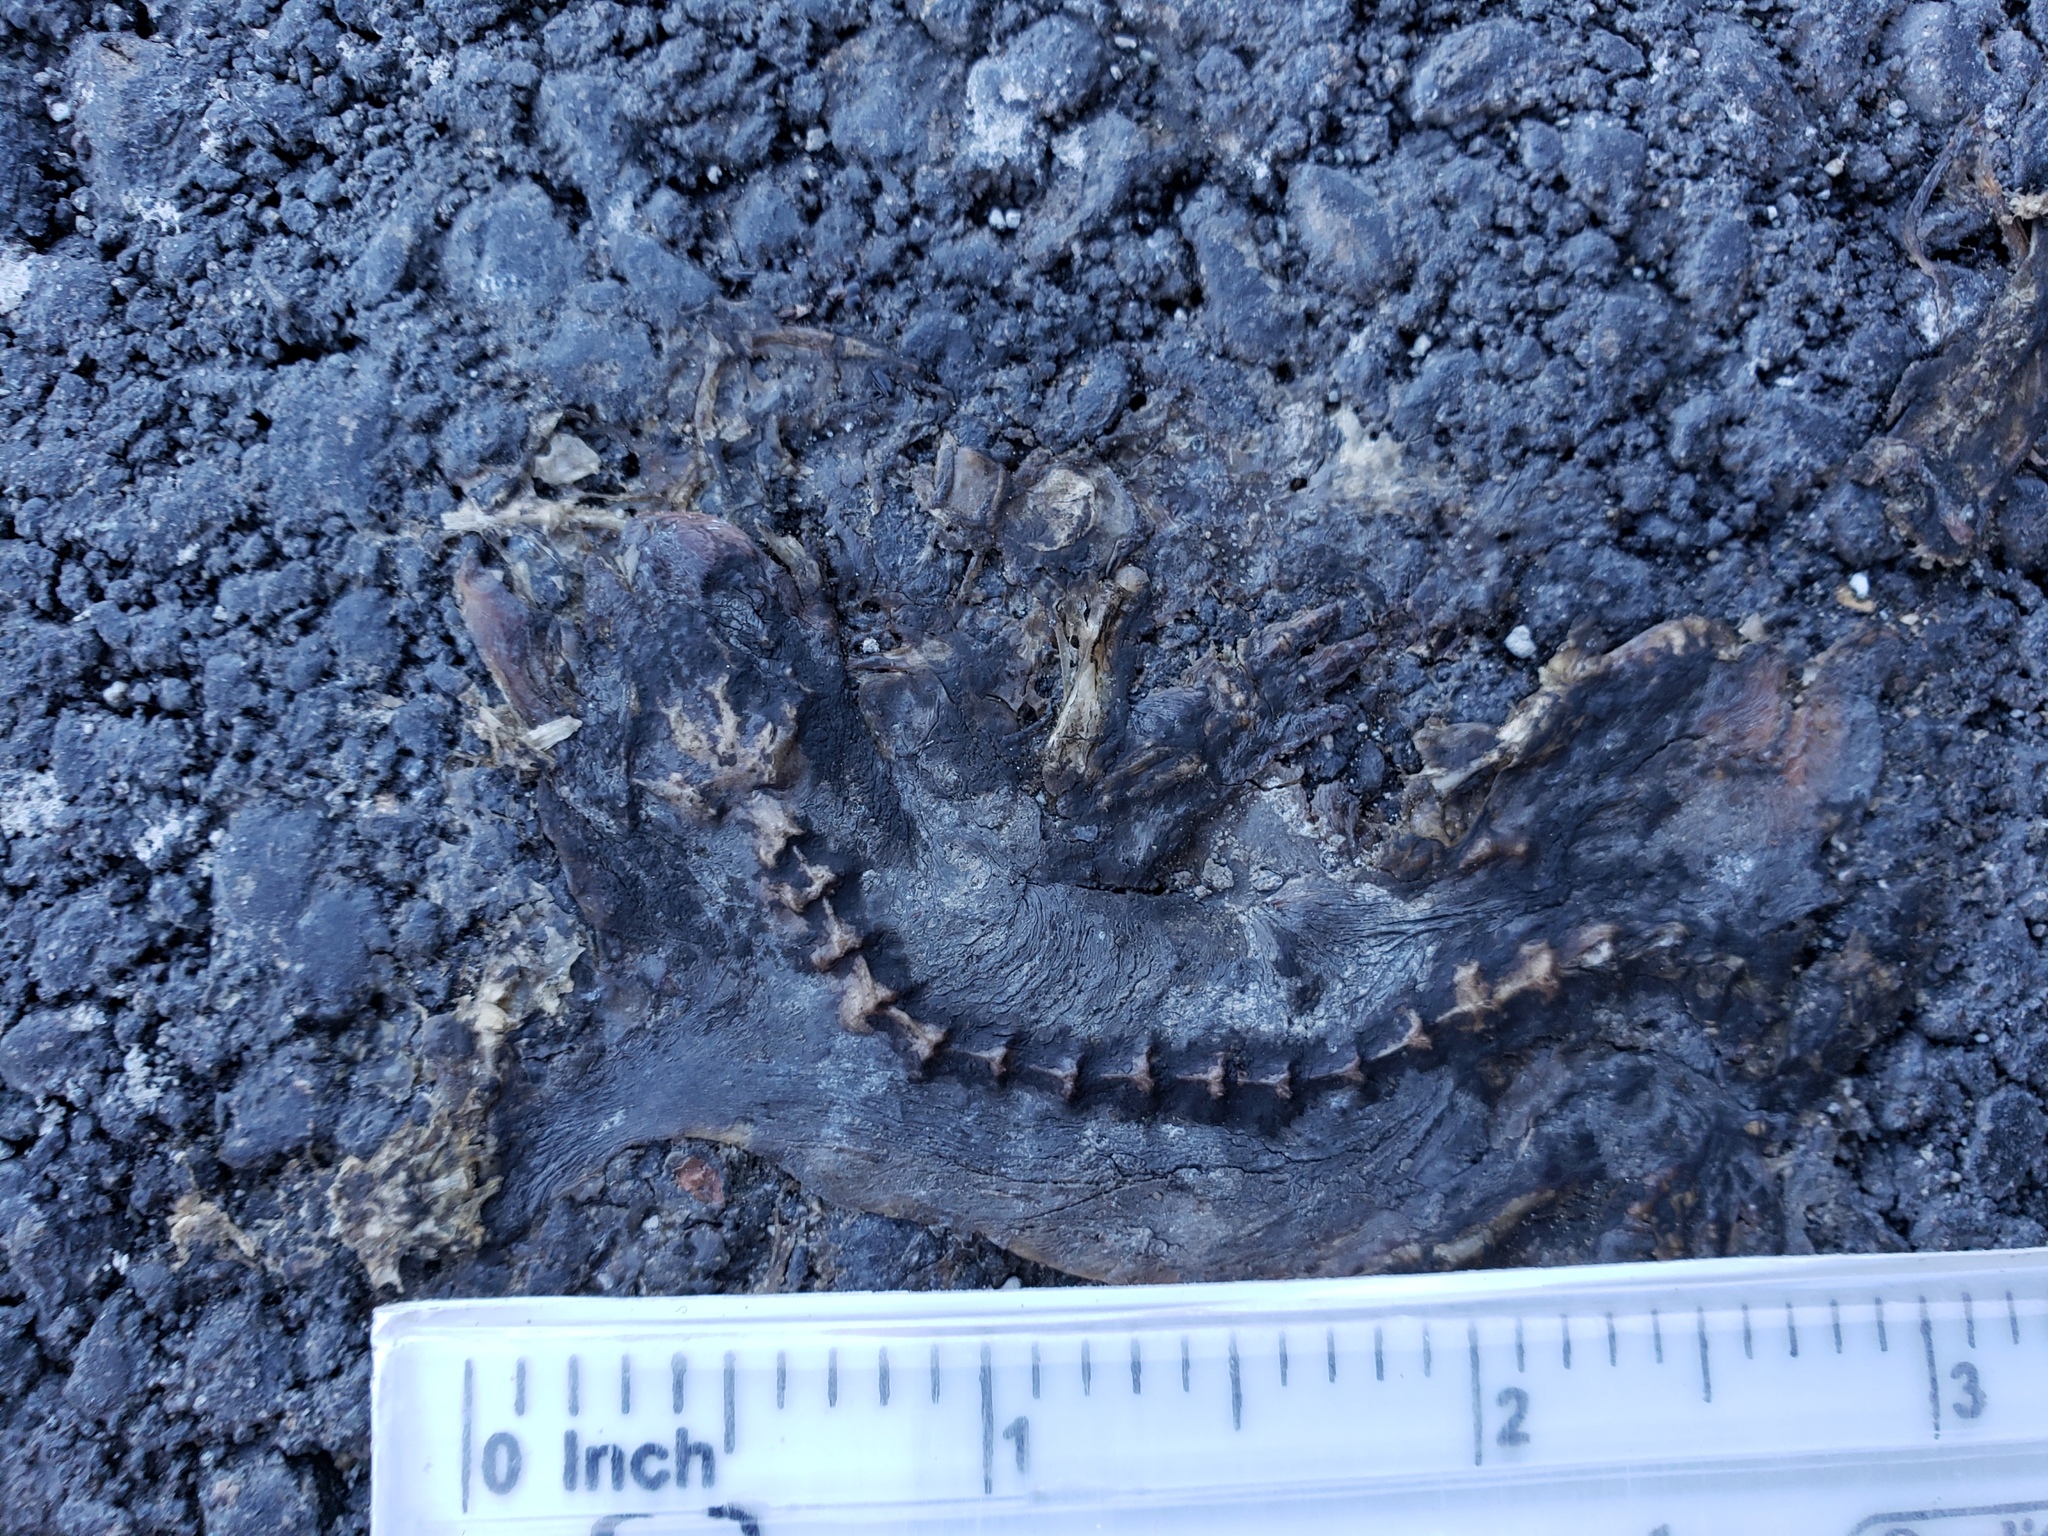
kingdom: Animalia
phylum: Chordata
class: Amphibia
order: Caudata
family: Salamandridae
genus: Taricha
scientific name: Taricha
